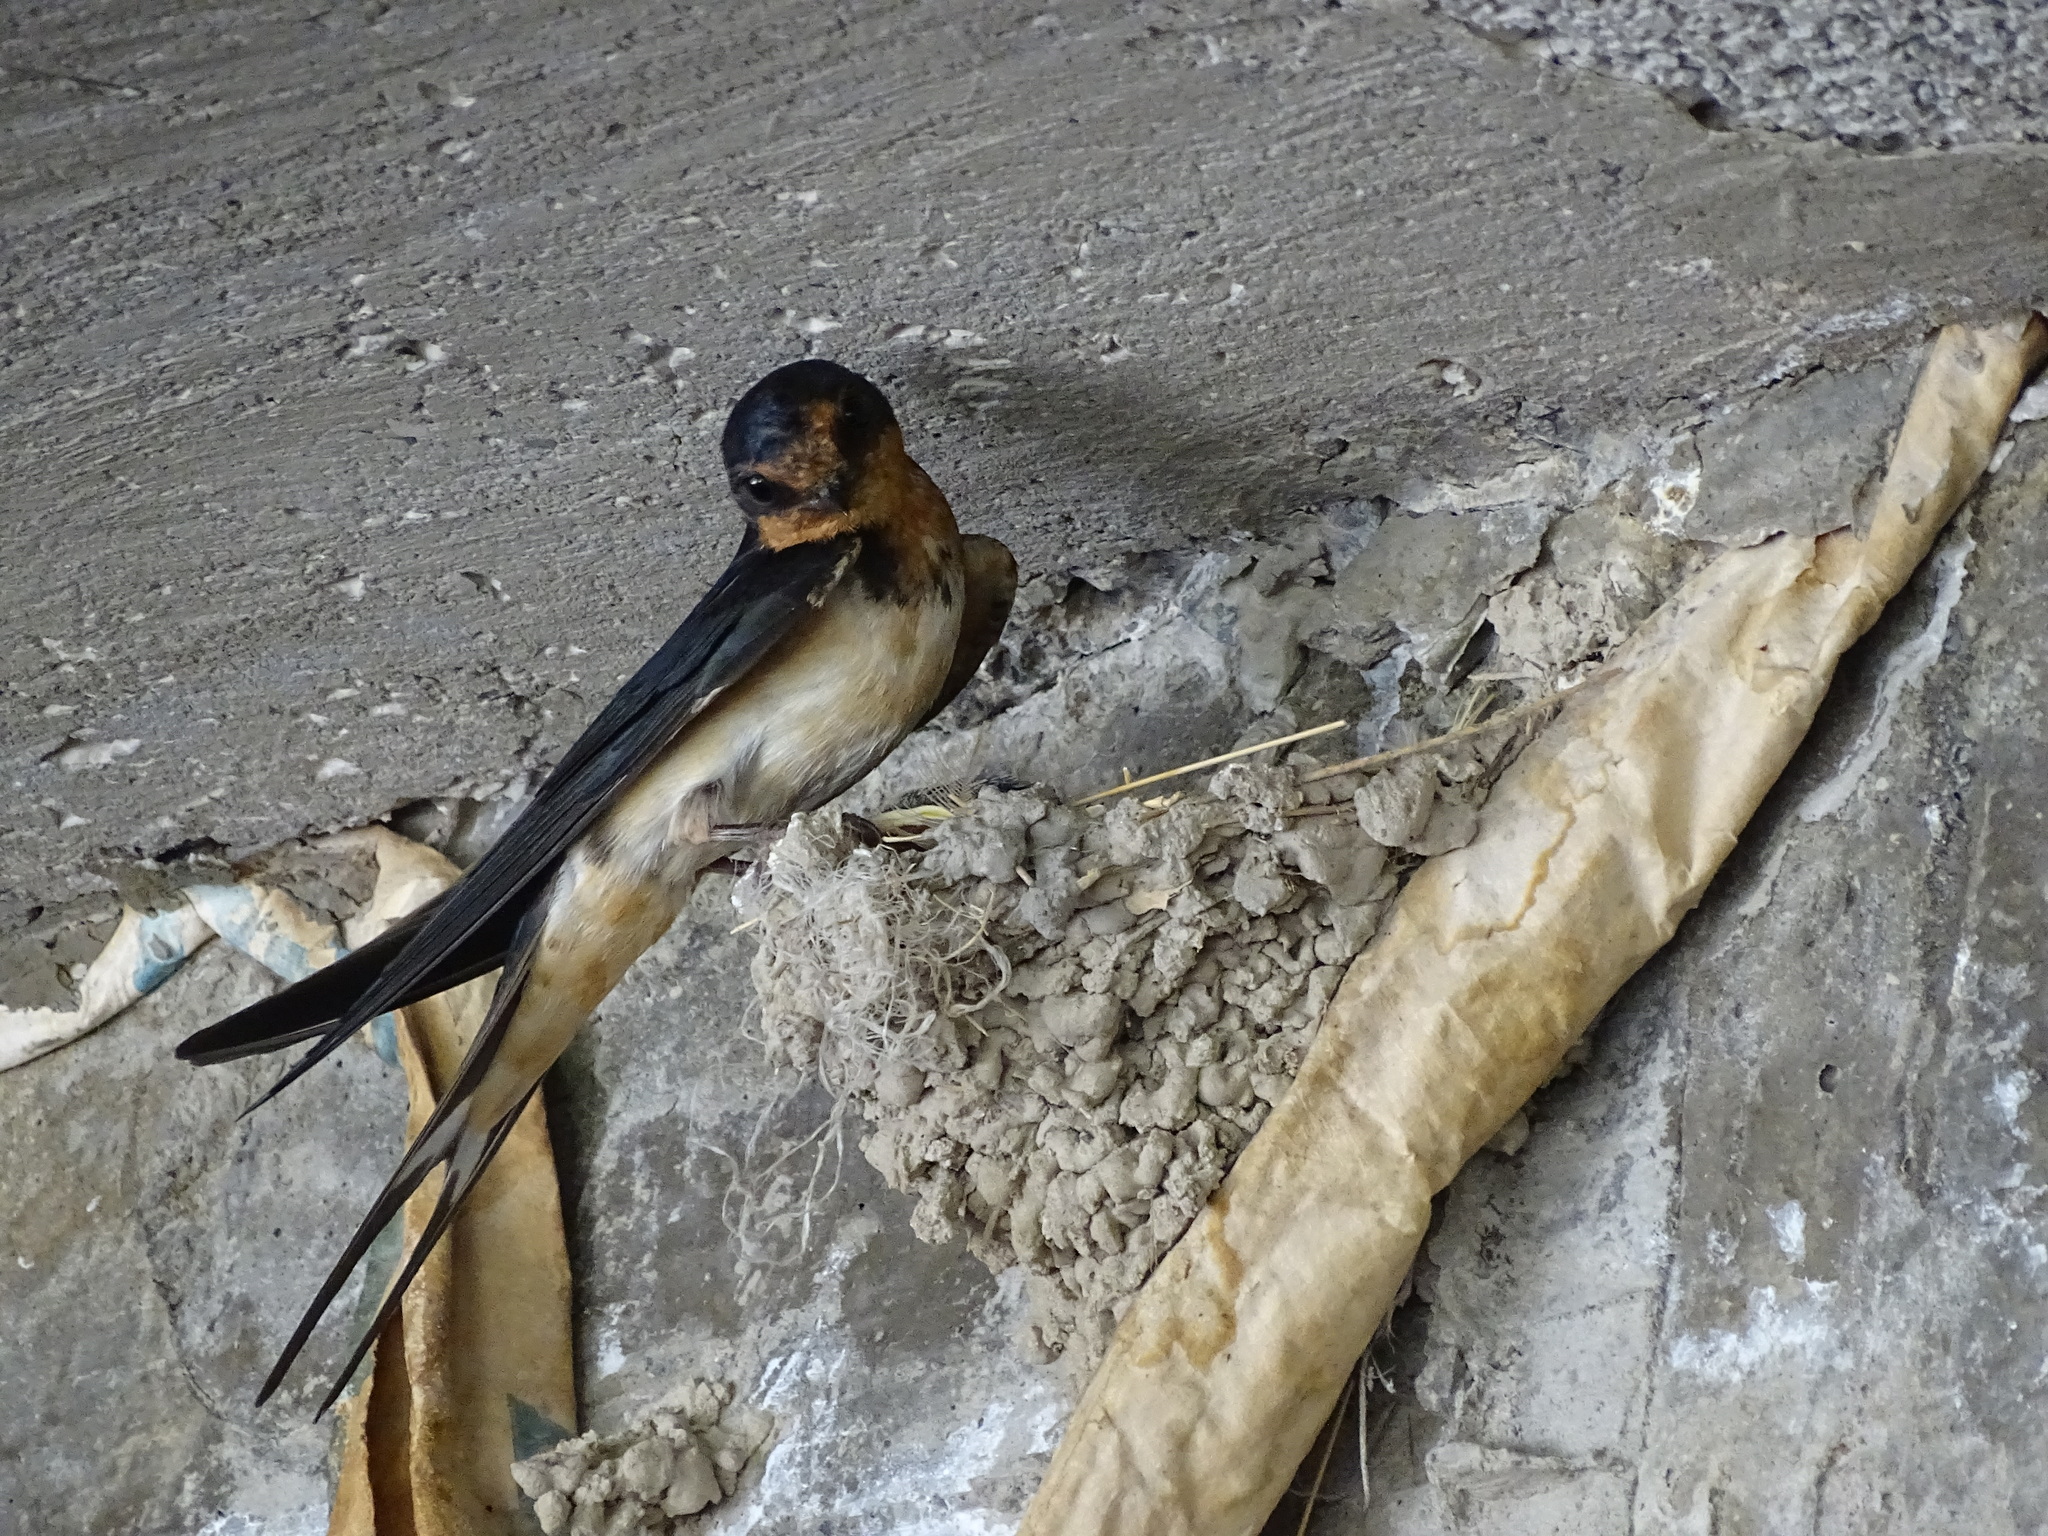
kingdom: Animalia
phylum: Chordata
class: Aves
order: Passeriformes
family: Hirundinidae
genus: Hirundo
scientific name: Hirundo rustica
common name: Barn swallow
